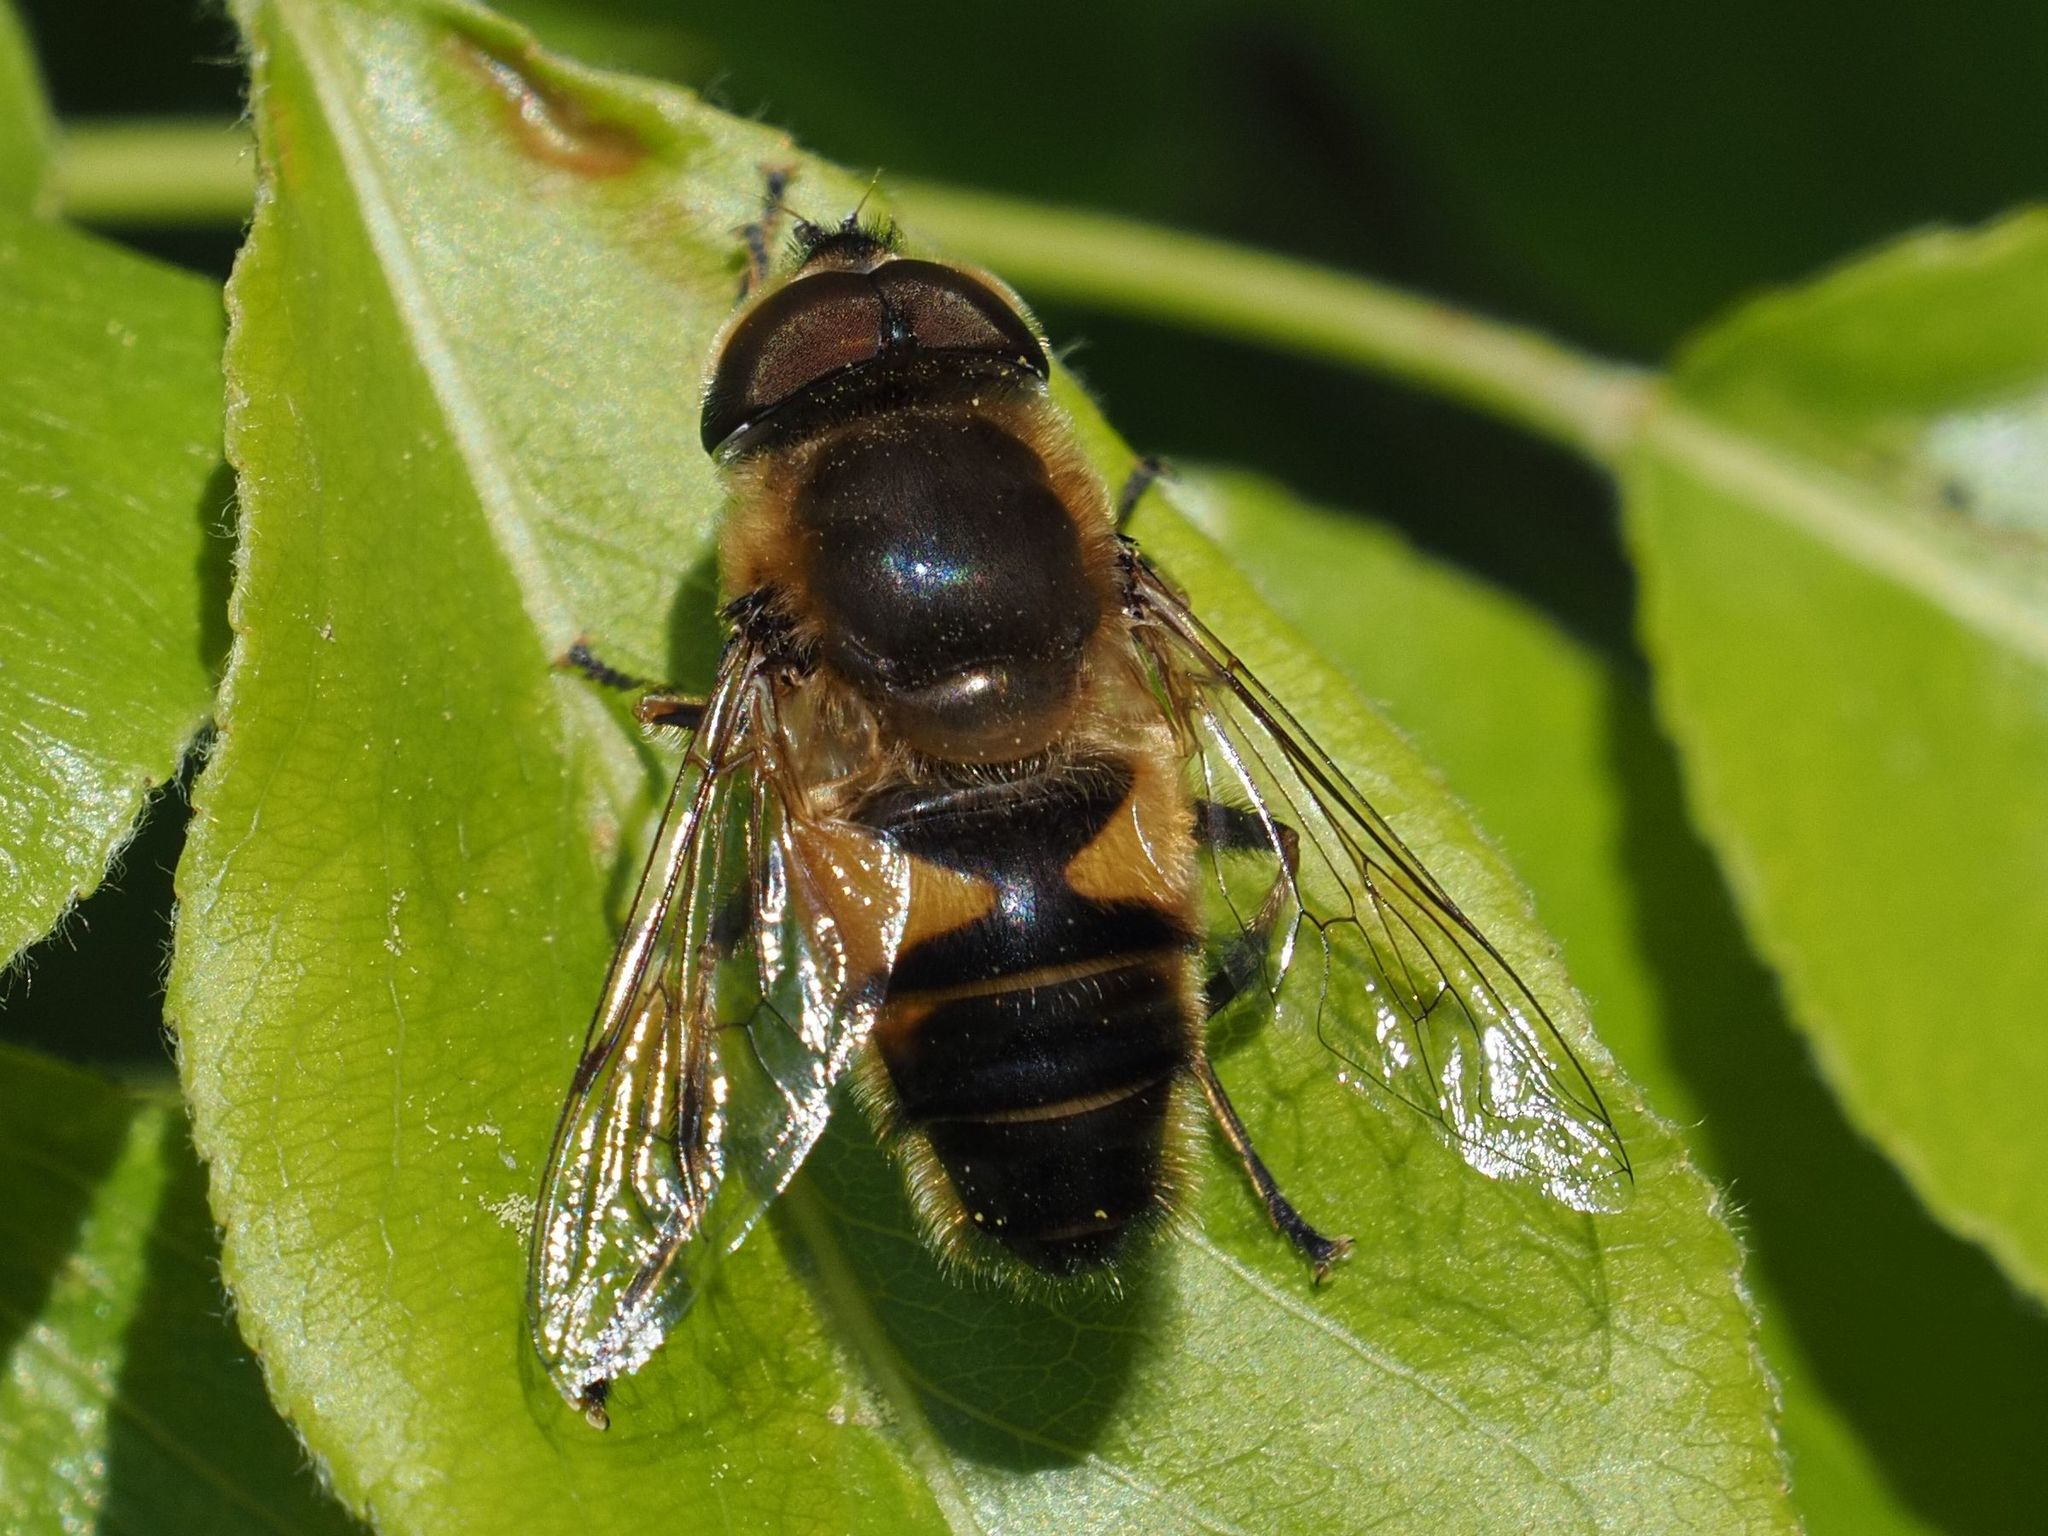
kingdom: Animalia
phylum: Arthropoda
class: Insecta
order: Diptera
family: Syrphidae
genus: Eristalis
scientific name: Eristalis pertinax
